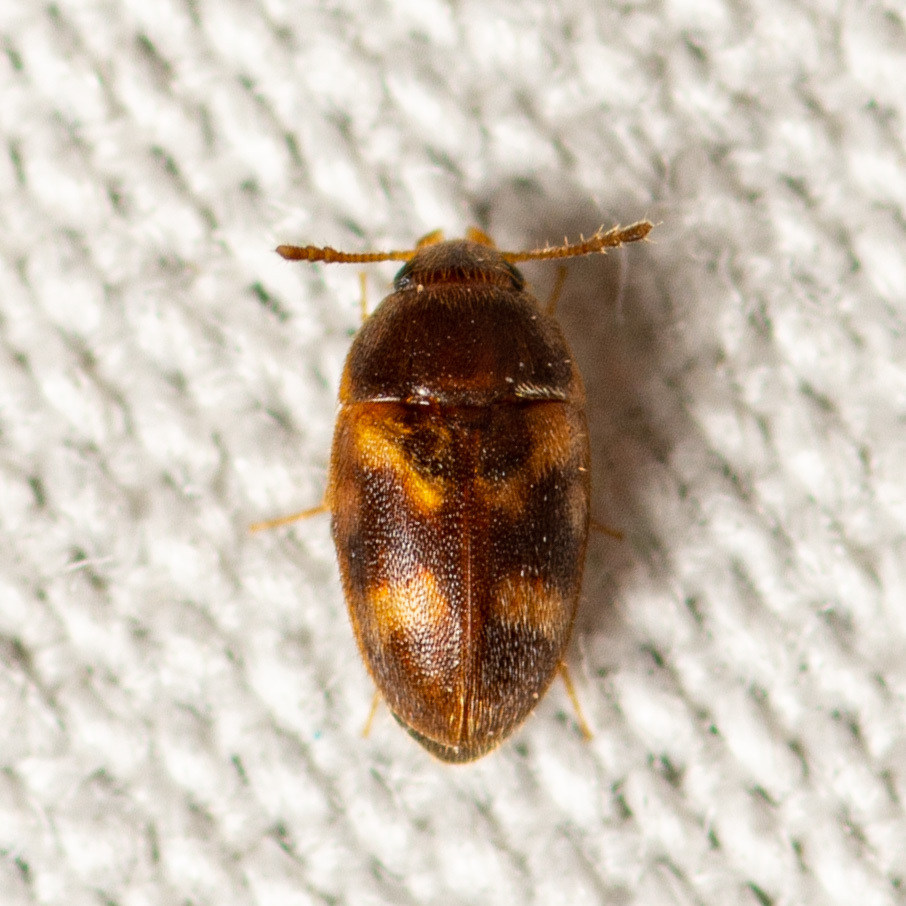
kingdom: Animalia
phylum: Arthropoda
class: Insecta
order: Coleoptera
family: Mycetophagidae
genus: Litargus
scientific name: Litargus balteatus
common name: Stored grain hairy fungus beetle
